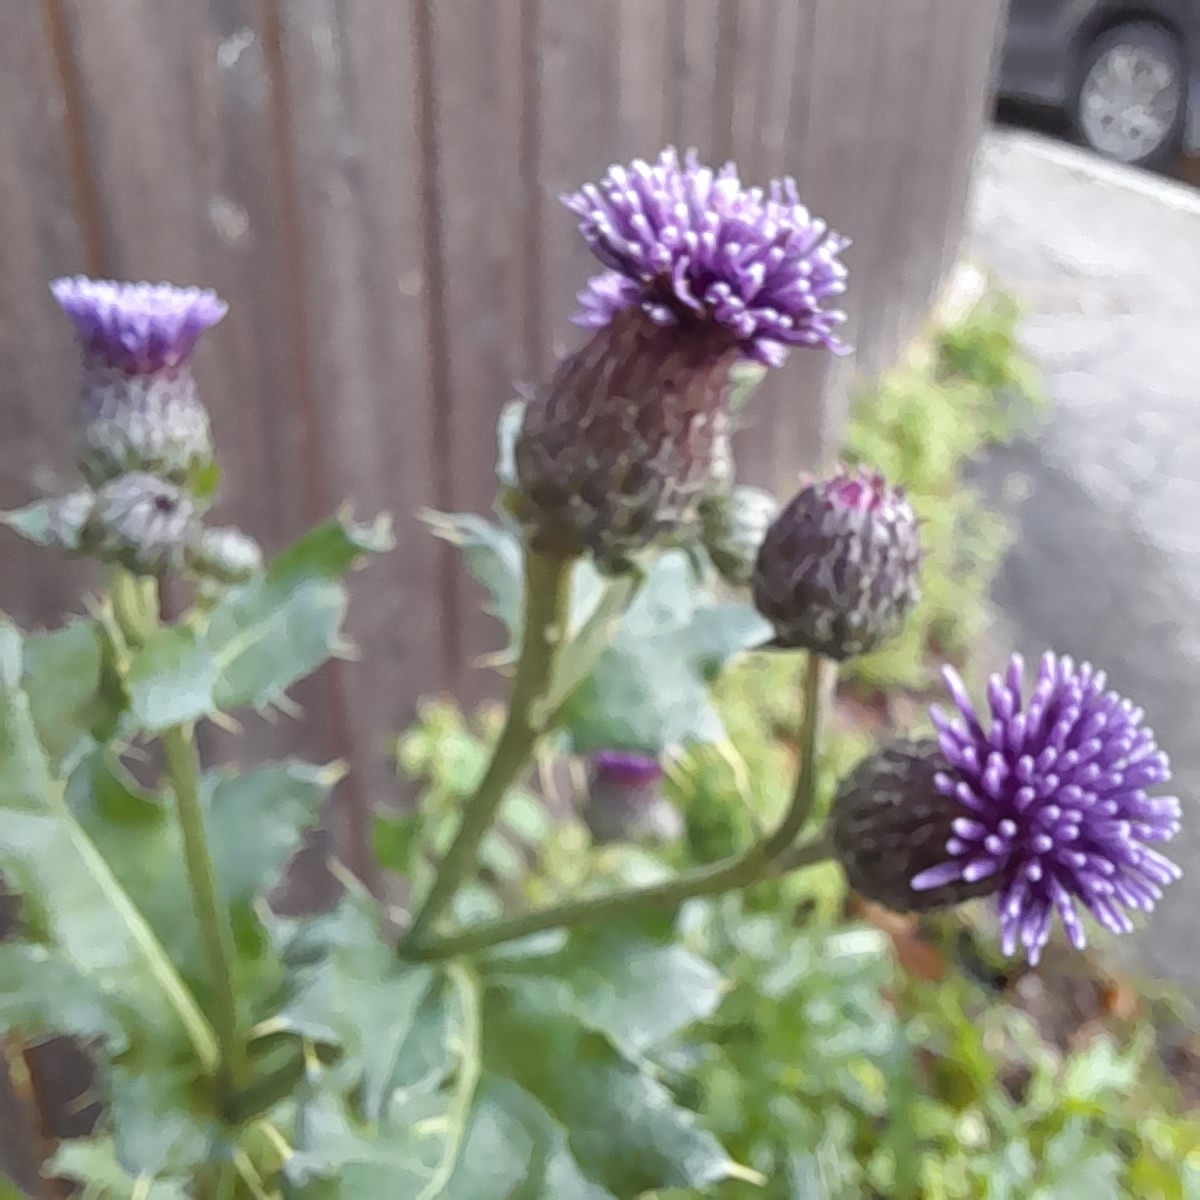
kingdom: Plantae
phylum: Tracheophyta
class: Magnoliopsida
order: Asterales
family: Asteraceae
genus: Cirsium
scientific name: Cirsium arvense
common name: Creeping thistle
